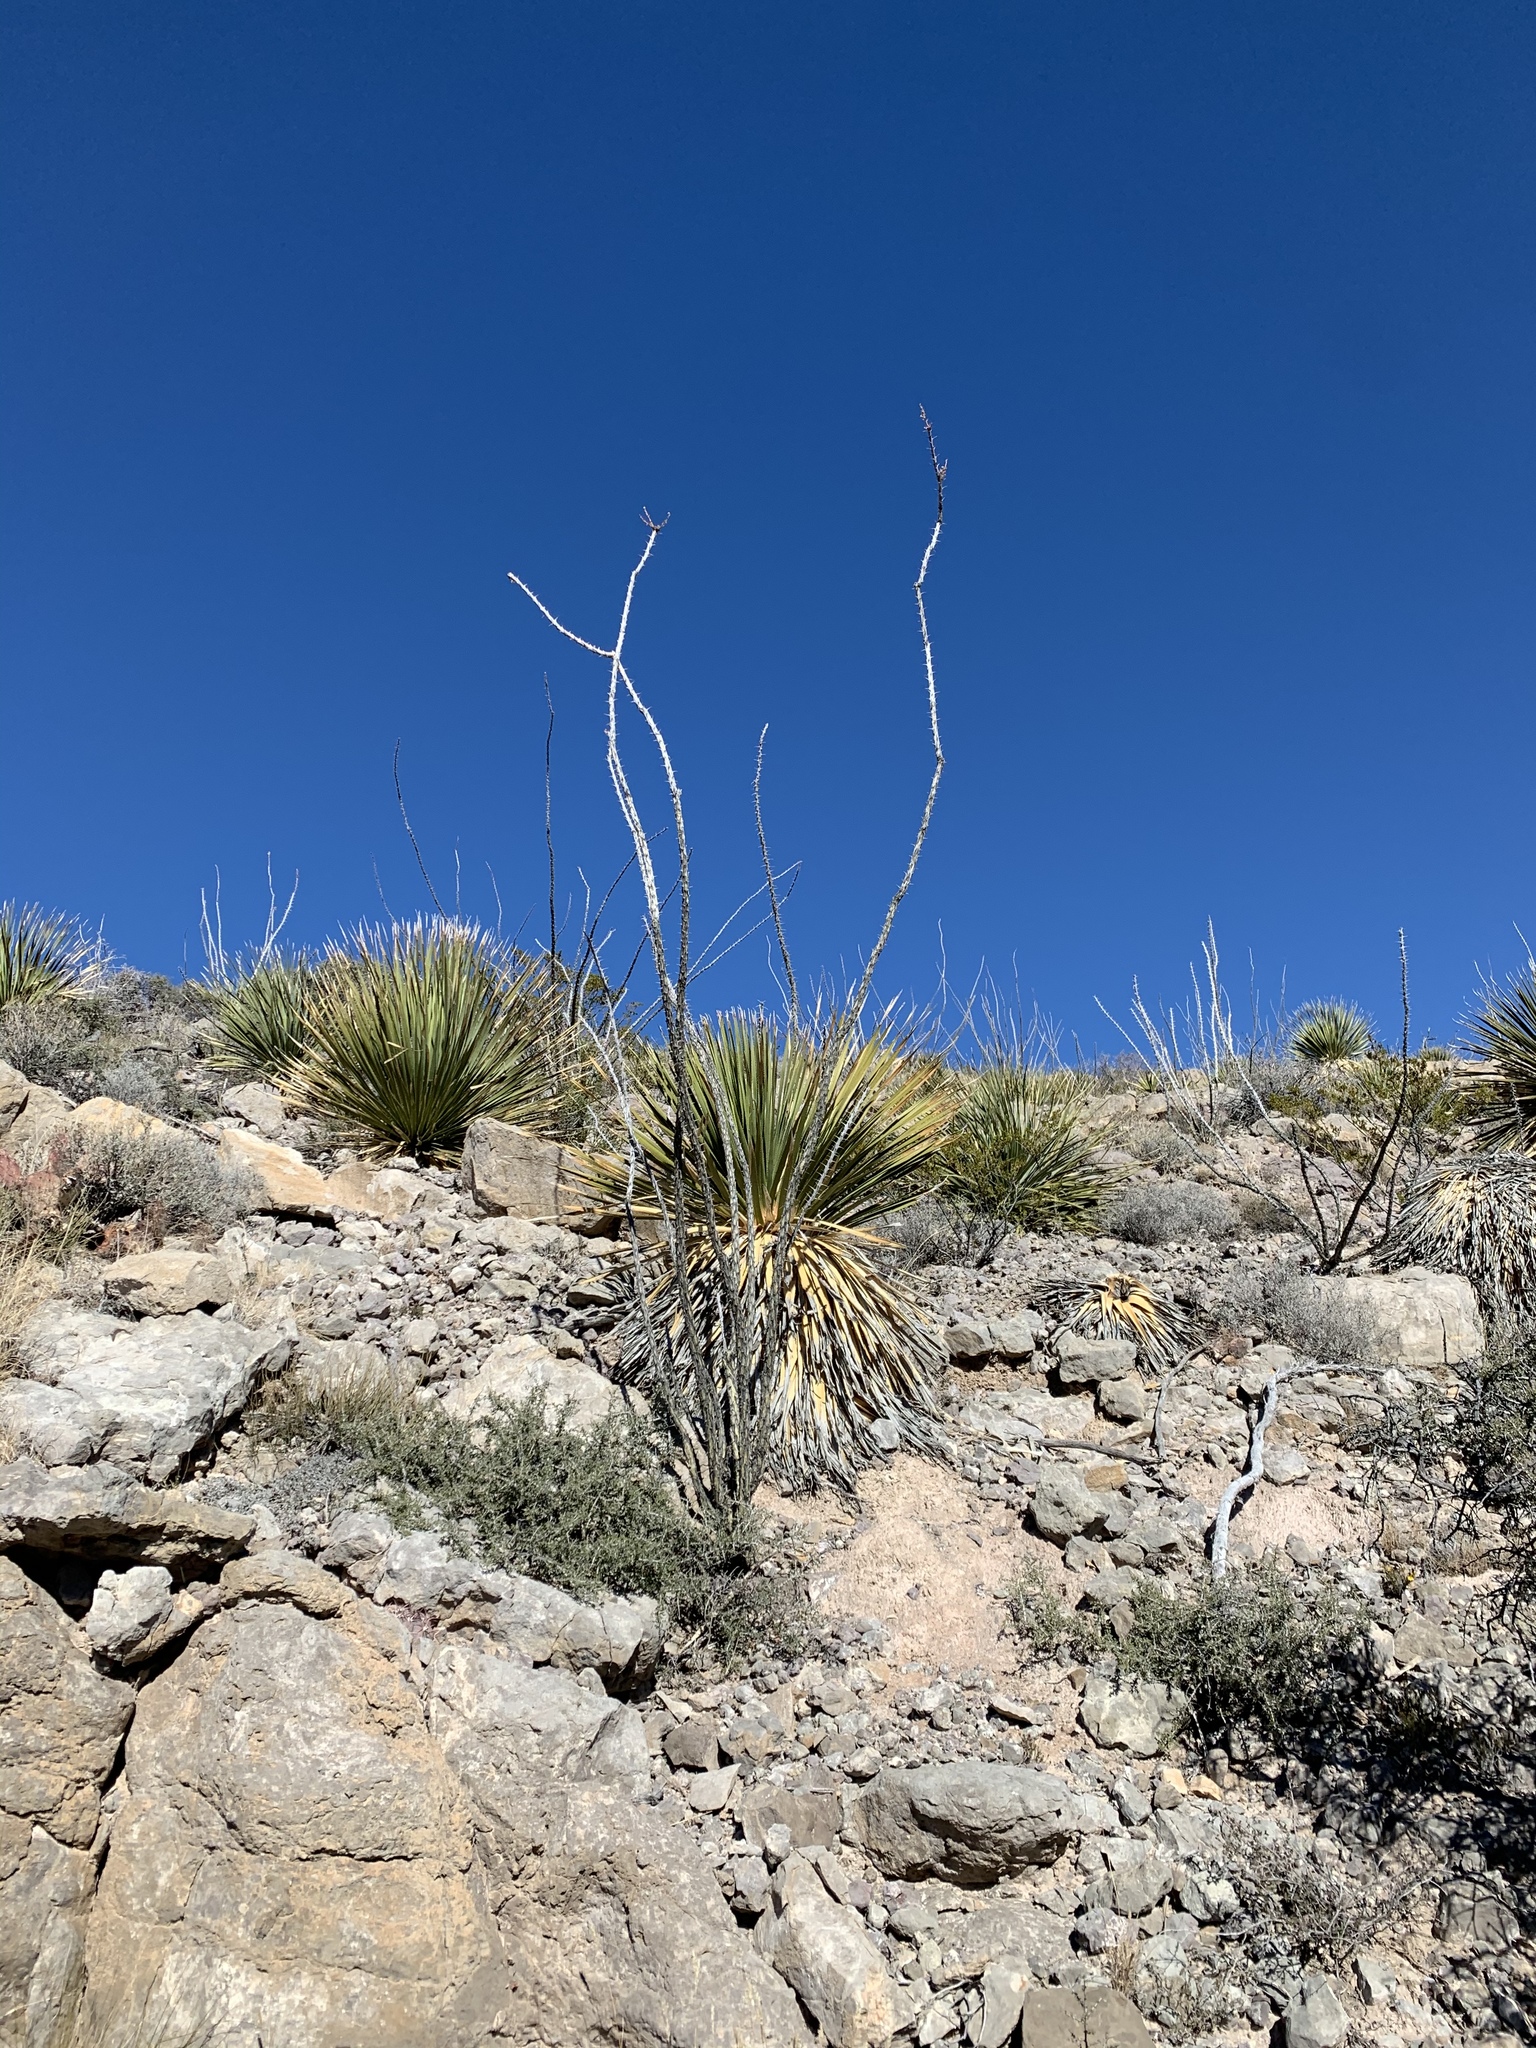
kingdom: Plantae
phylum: Tracheophyta
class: Magnoliopsida
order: Ericales
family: Fouquieriaceae
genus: Fouquieria
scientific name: Fouquieria splendens
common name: Vine-cactus
